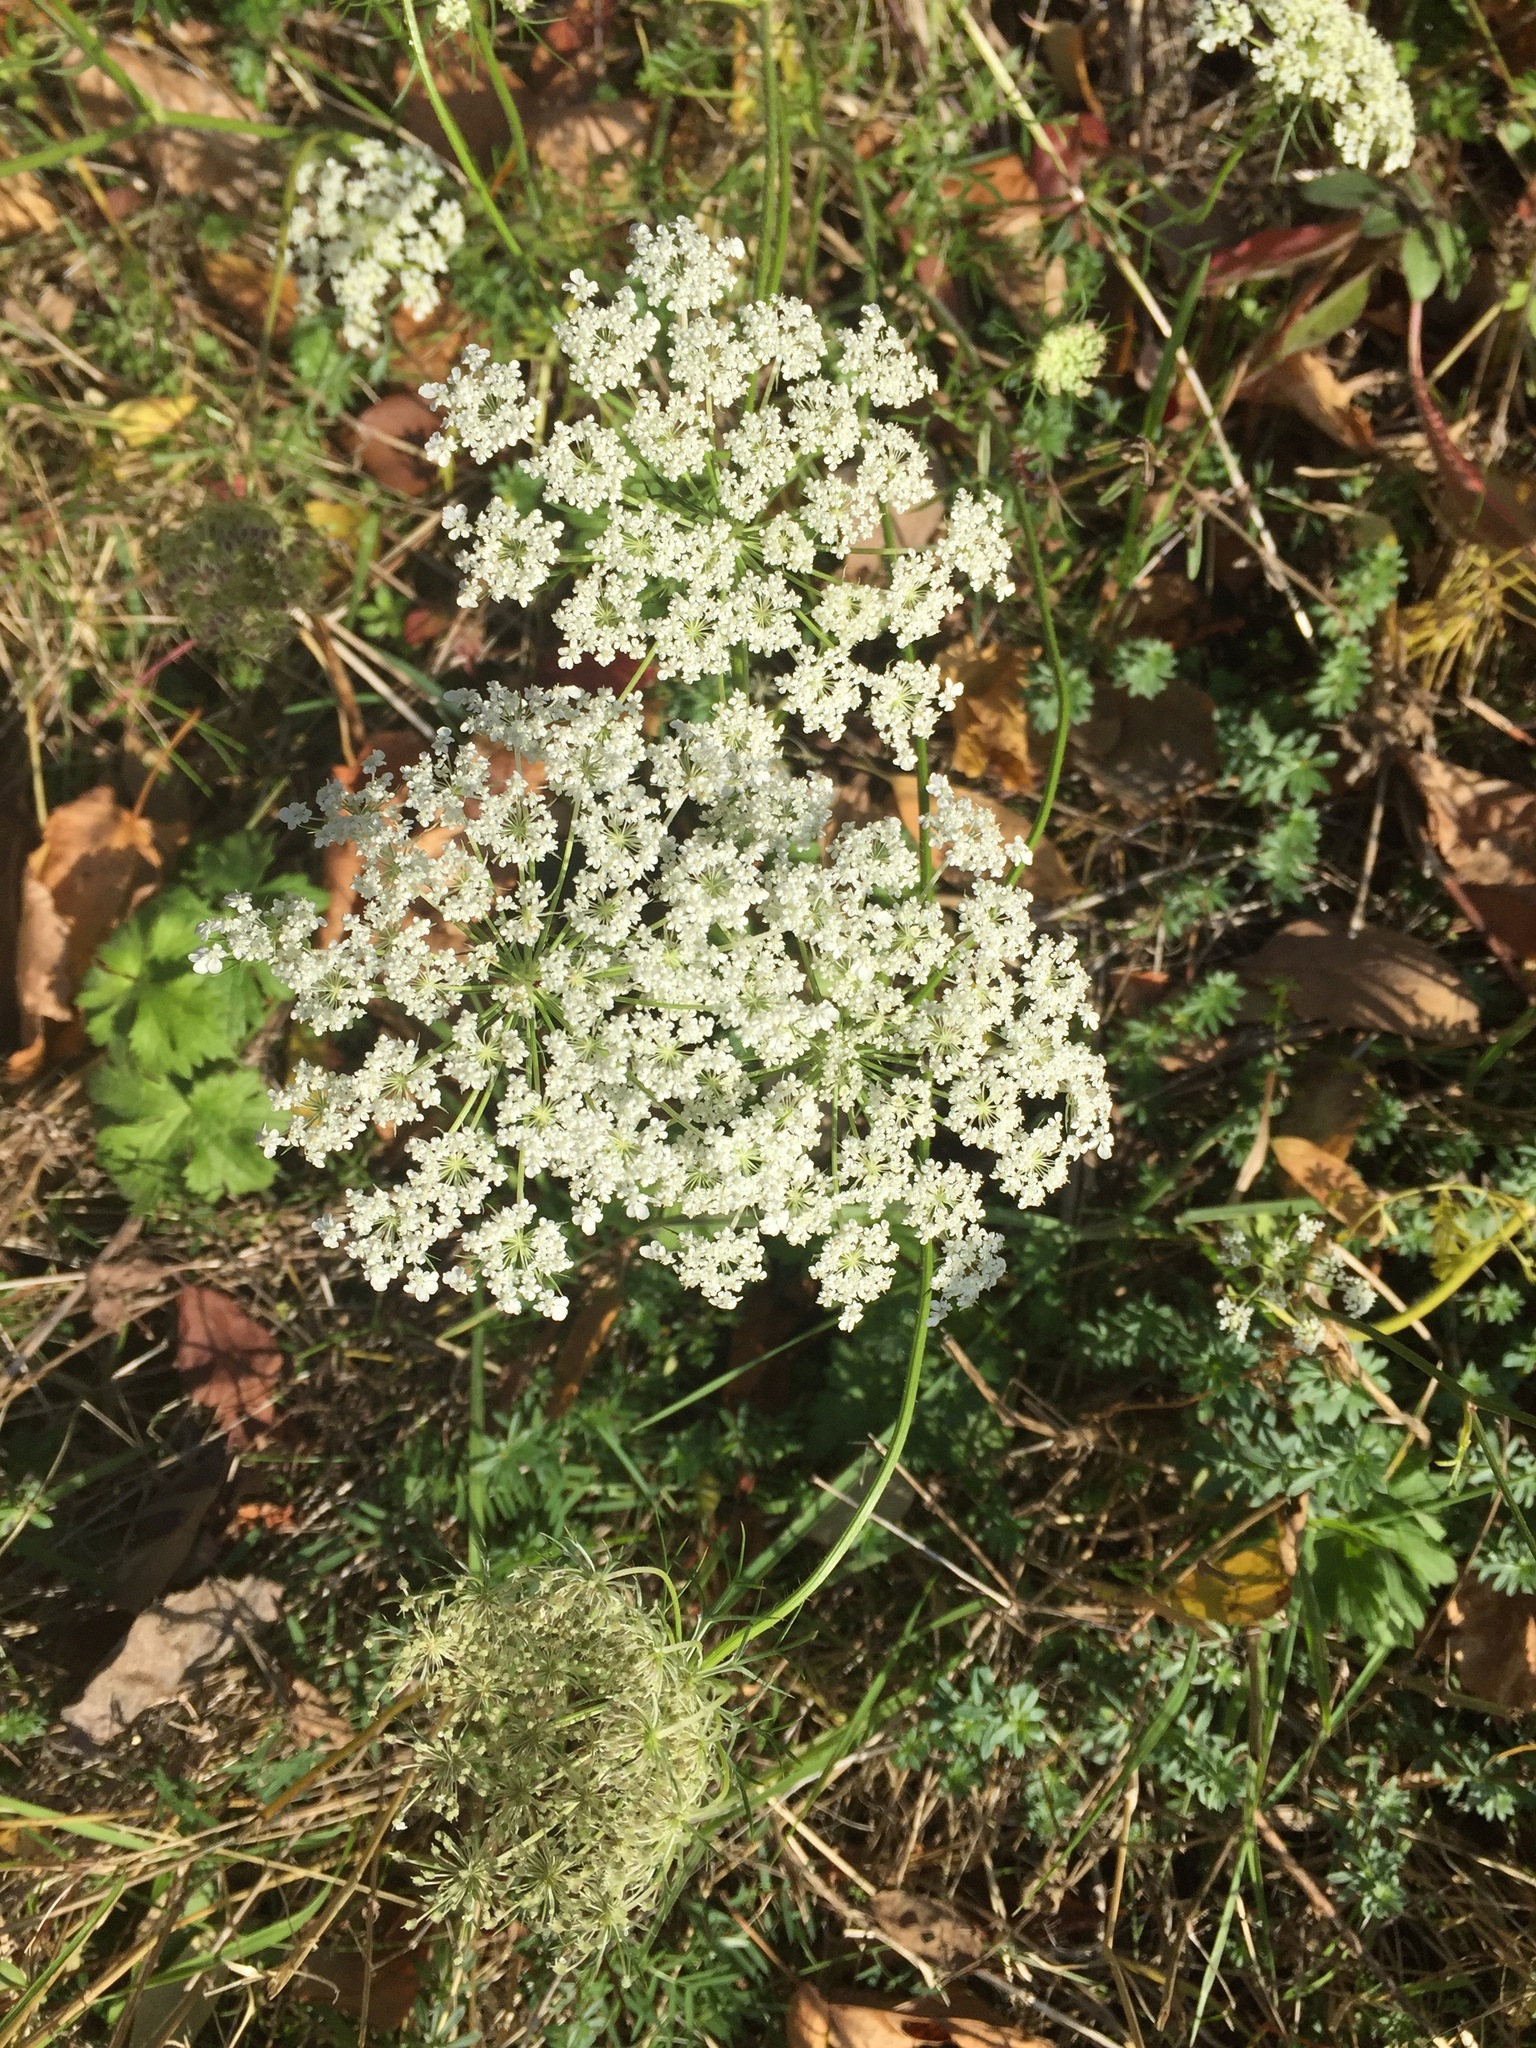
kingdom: Plantae
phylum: Tracheophyta
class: Magnoliopsida
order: Apiales
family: Apiaceae
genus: Daucus
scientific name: Daucus carota
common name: Wild carrot
